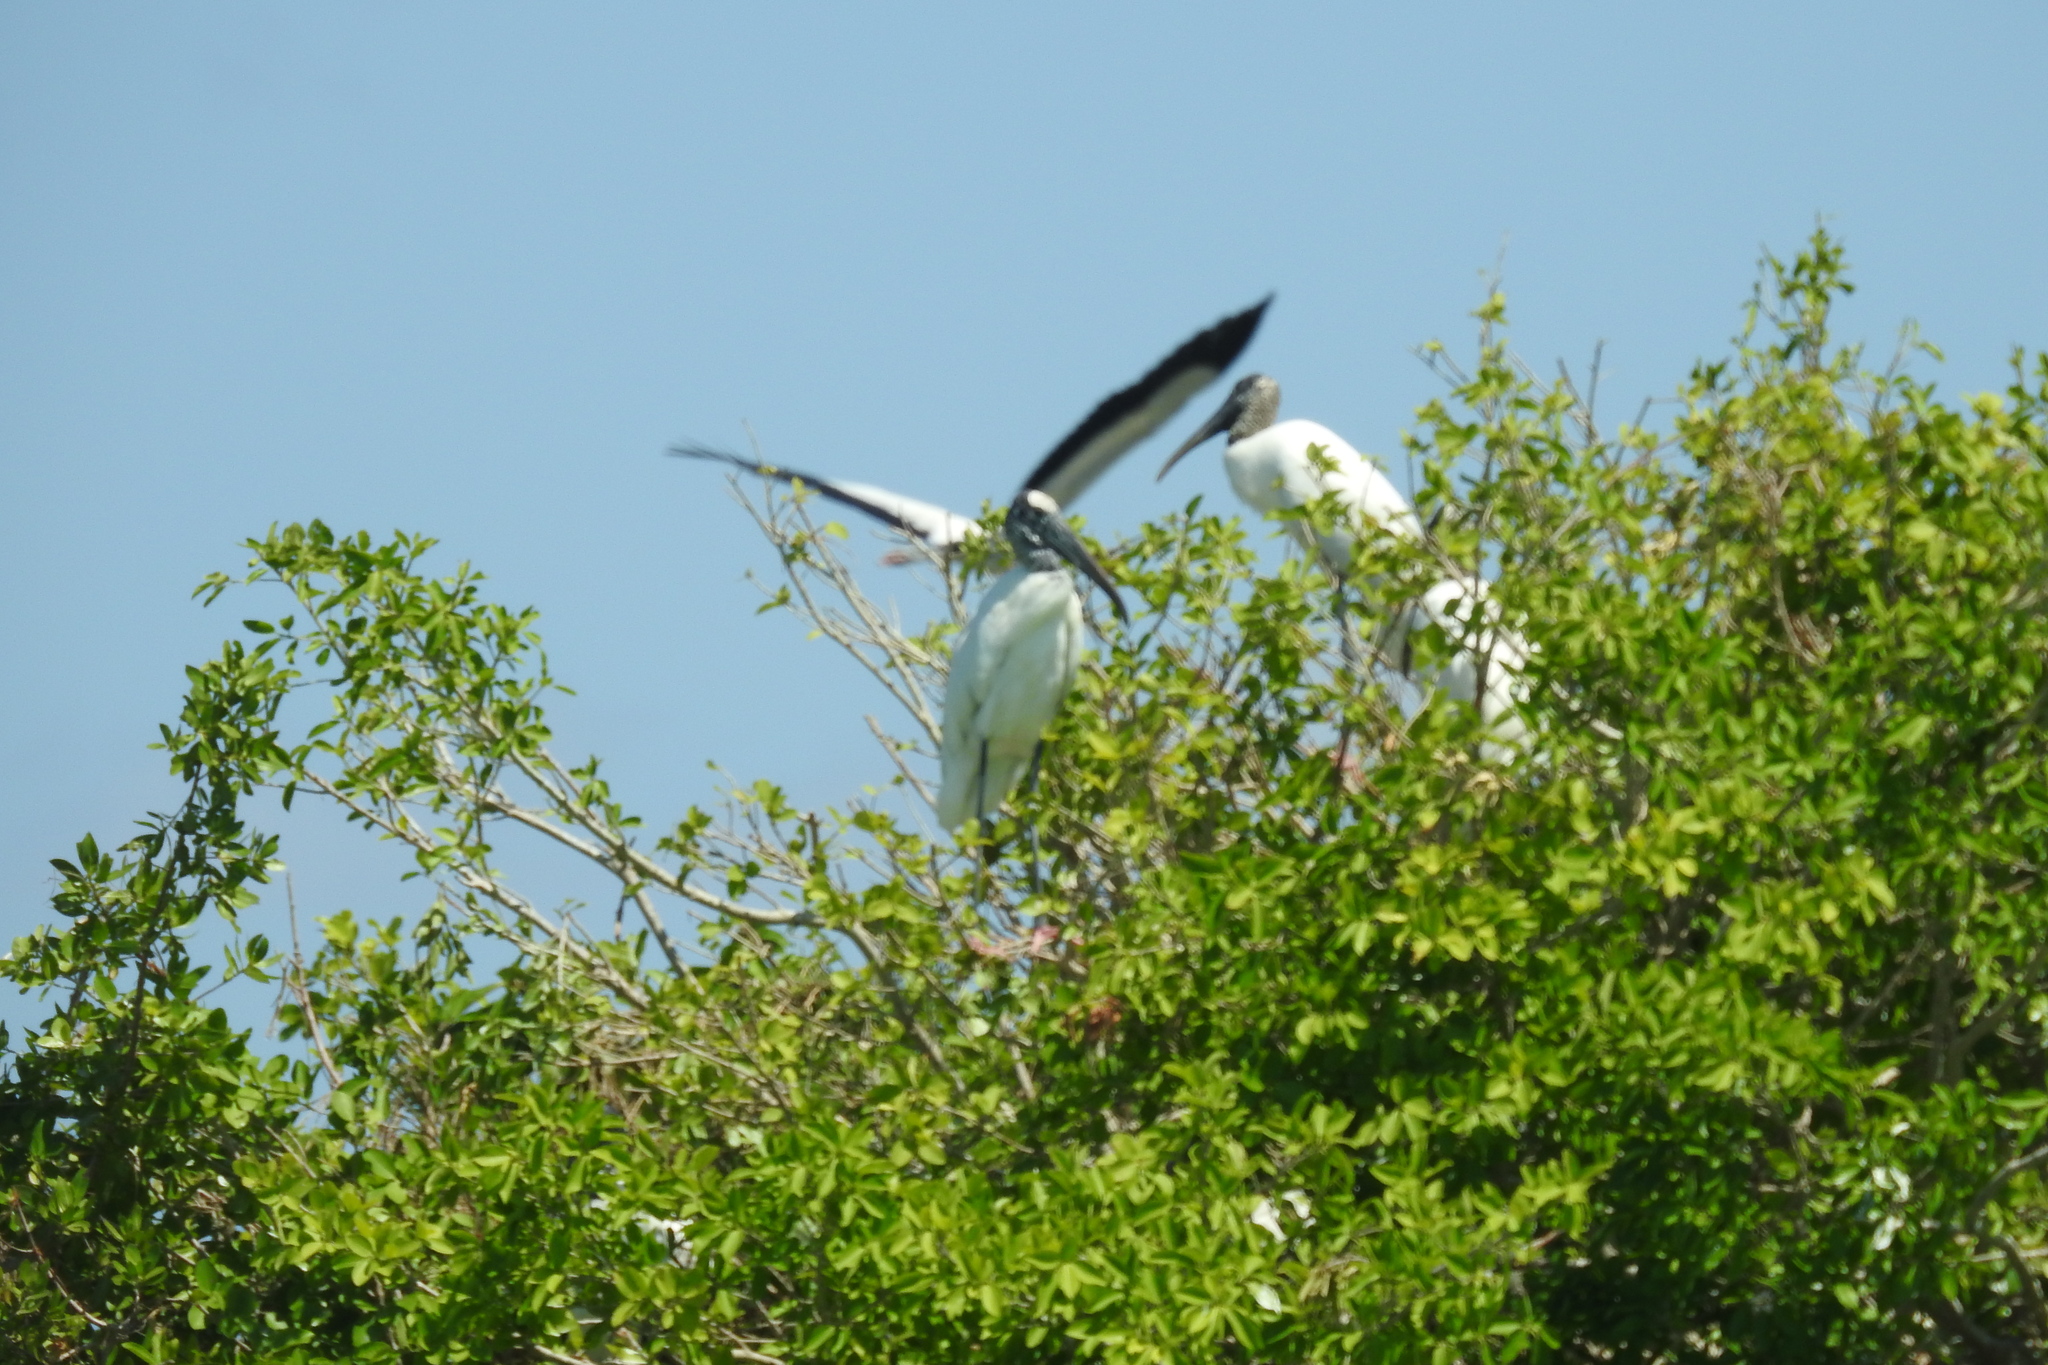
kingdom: Animalia
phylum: Chordata
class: Aves
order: Ciconiiformes
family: Ciconiidae
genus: Mycteria
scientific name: Mycteria americana
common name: Wood stork
